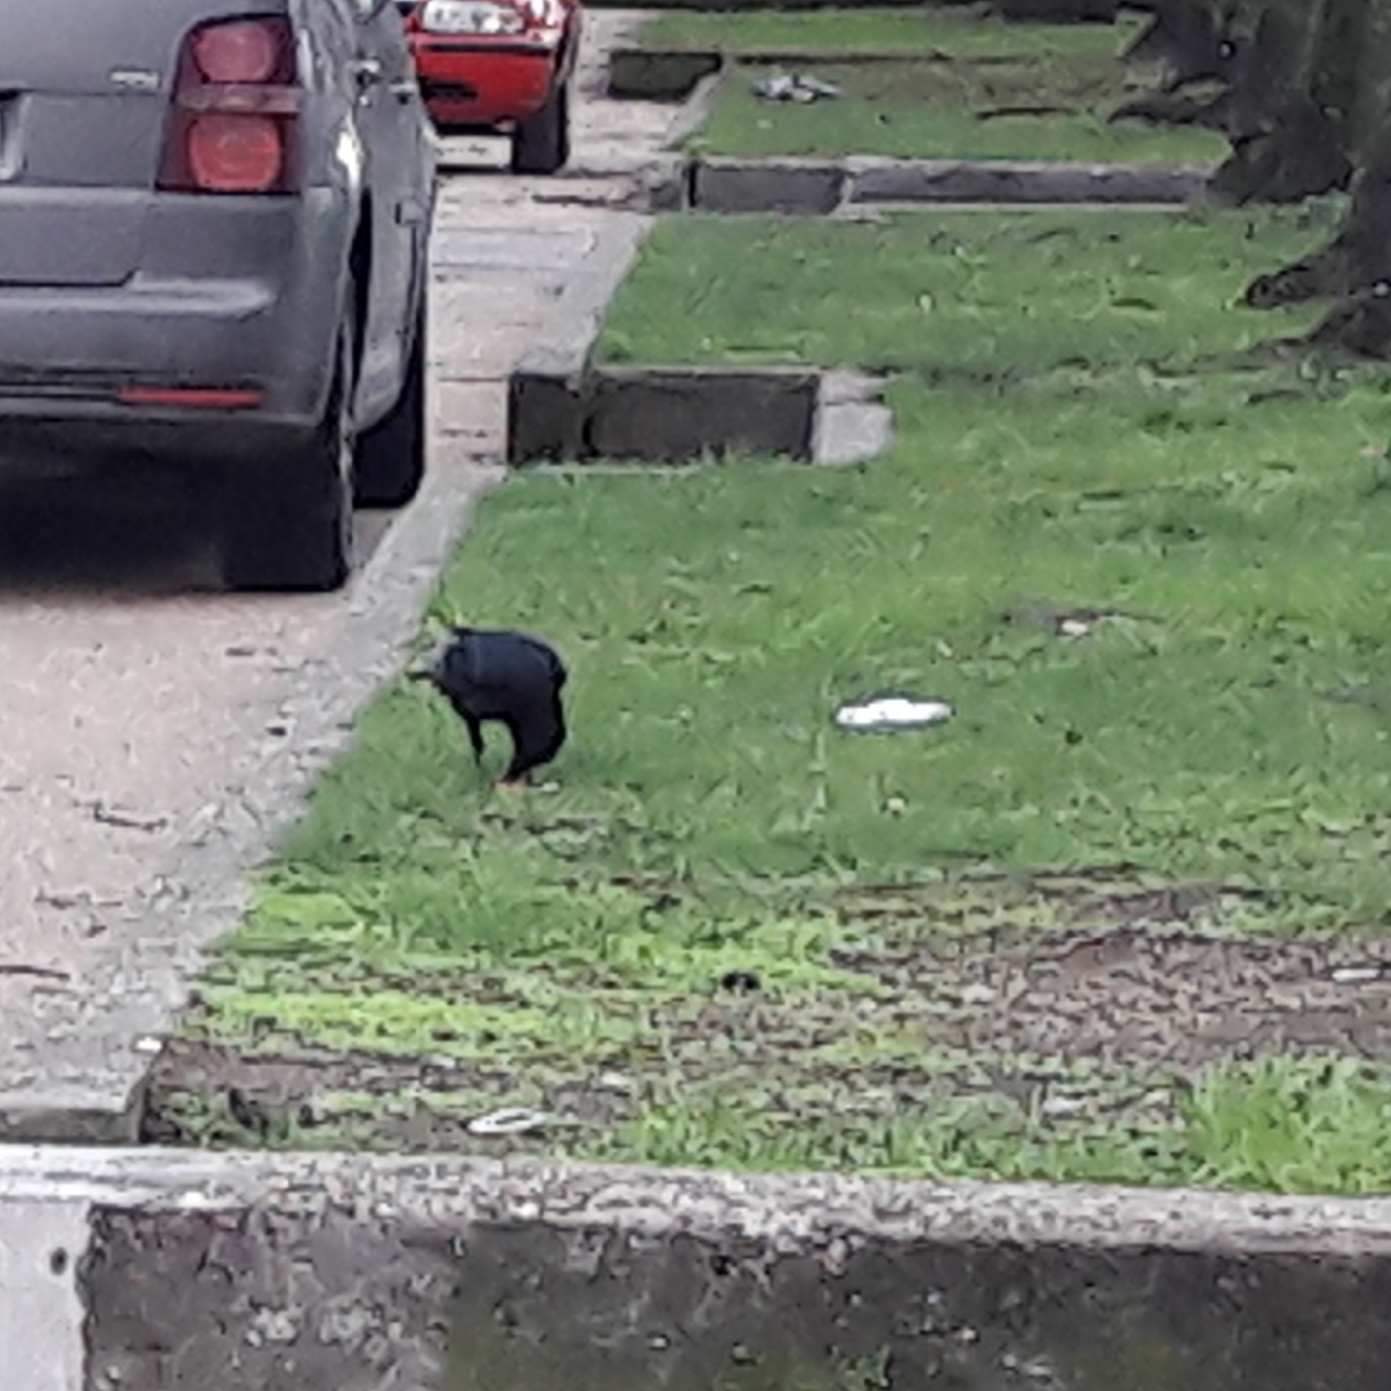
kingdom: Animalia
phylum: Chordata
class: Aves
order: Passeriformes
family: Corvidae
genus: Corvus
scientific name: Corvus corone
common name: Carrion crow
